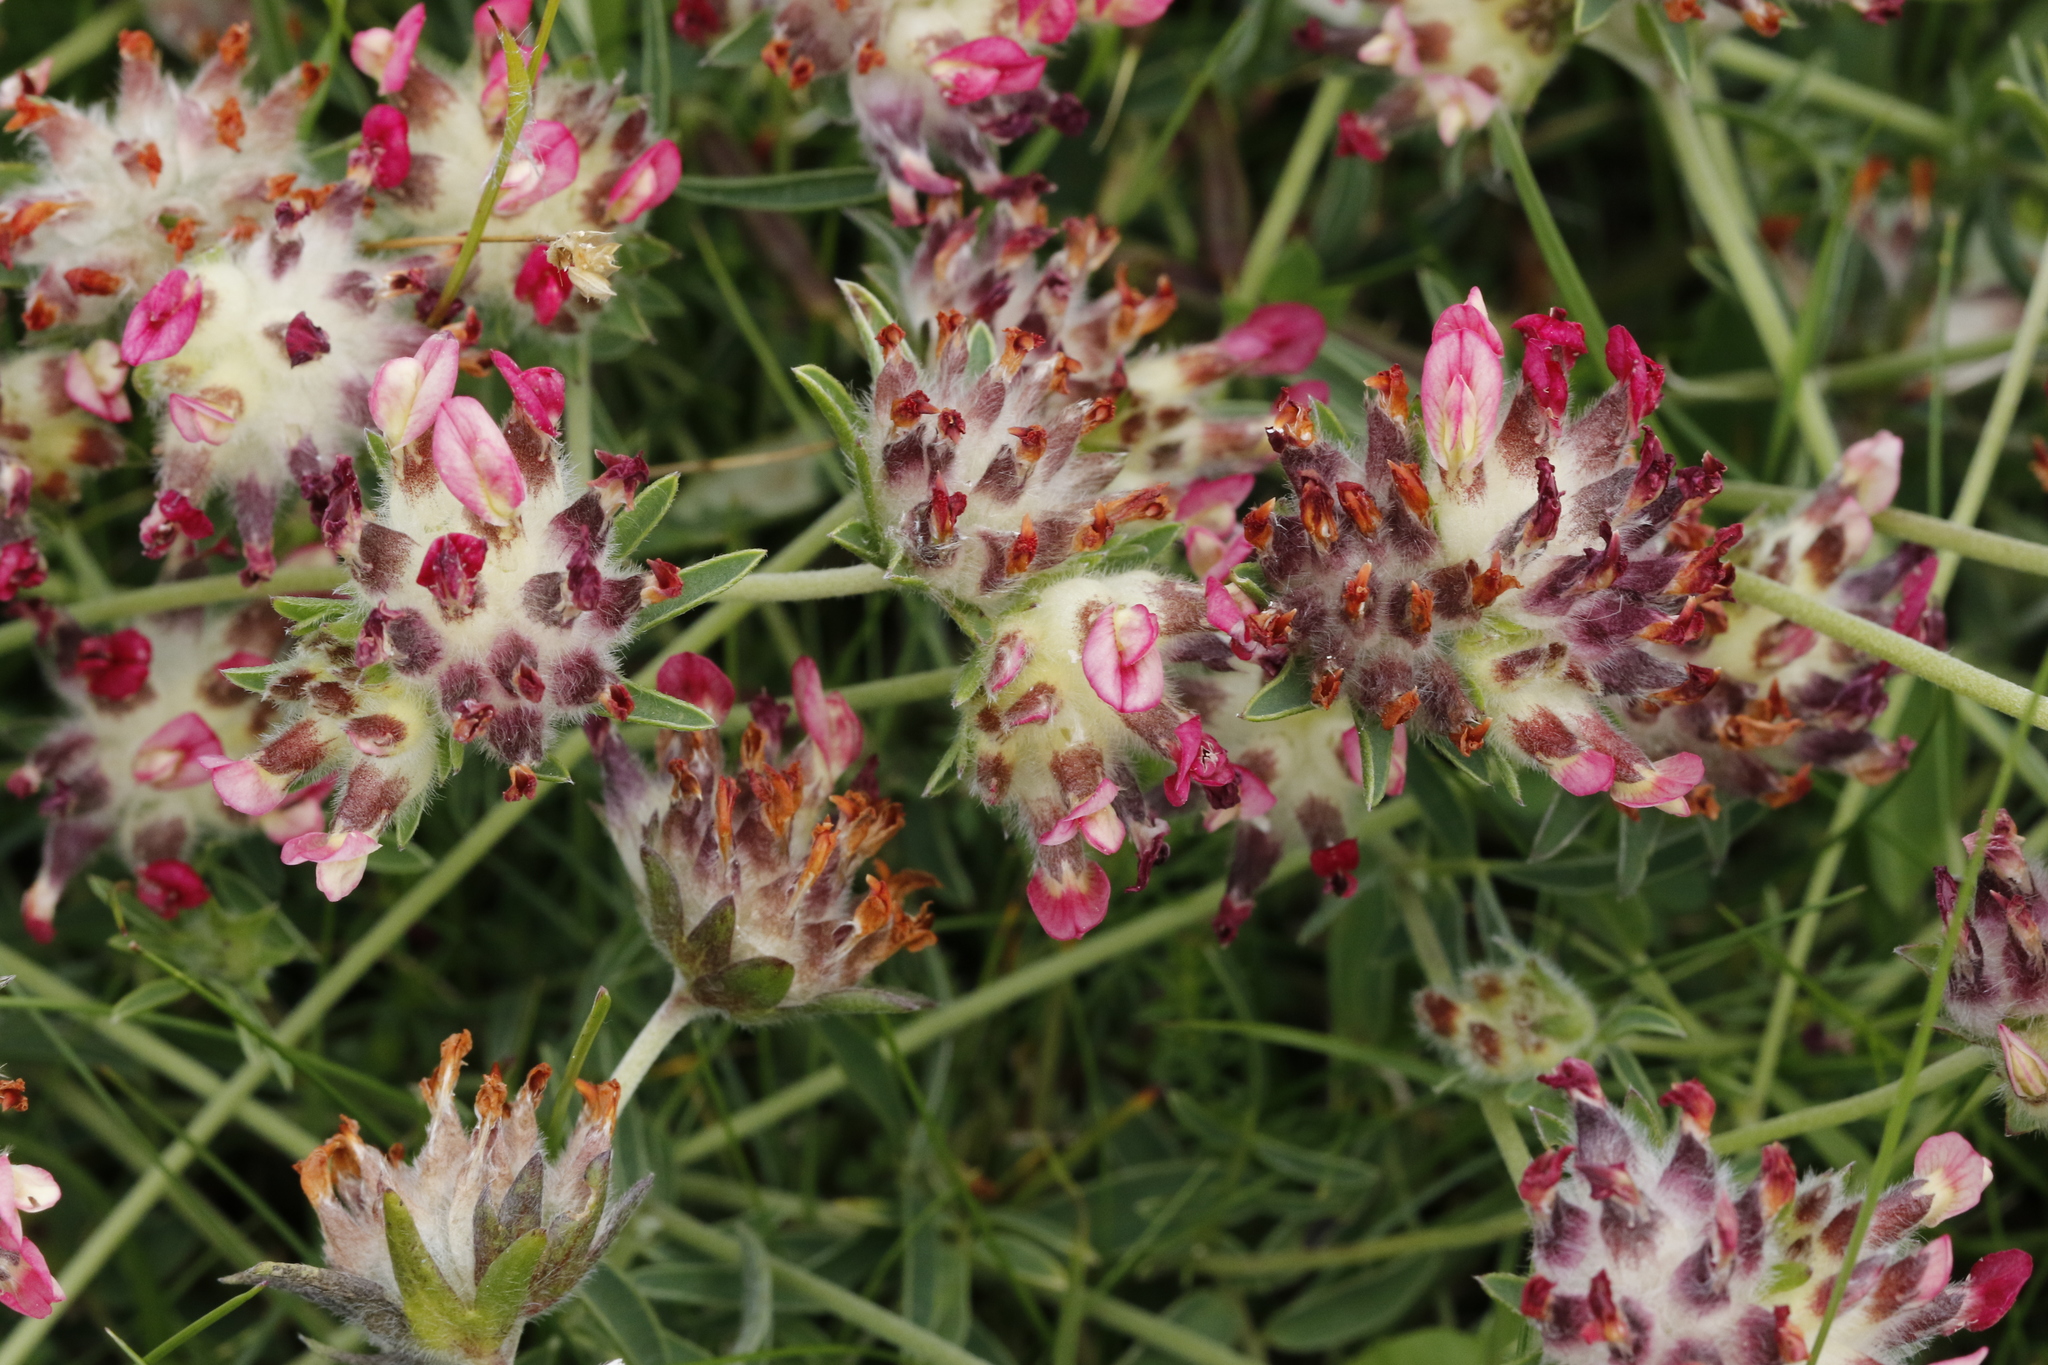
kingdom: Plantae
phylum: Tracheophyta
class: Magnoliopsida
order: Fabales
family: Fabaceae
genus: Anthyllis
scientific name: Anthyllis vulneraria
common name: Kidney vetch
